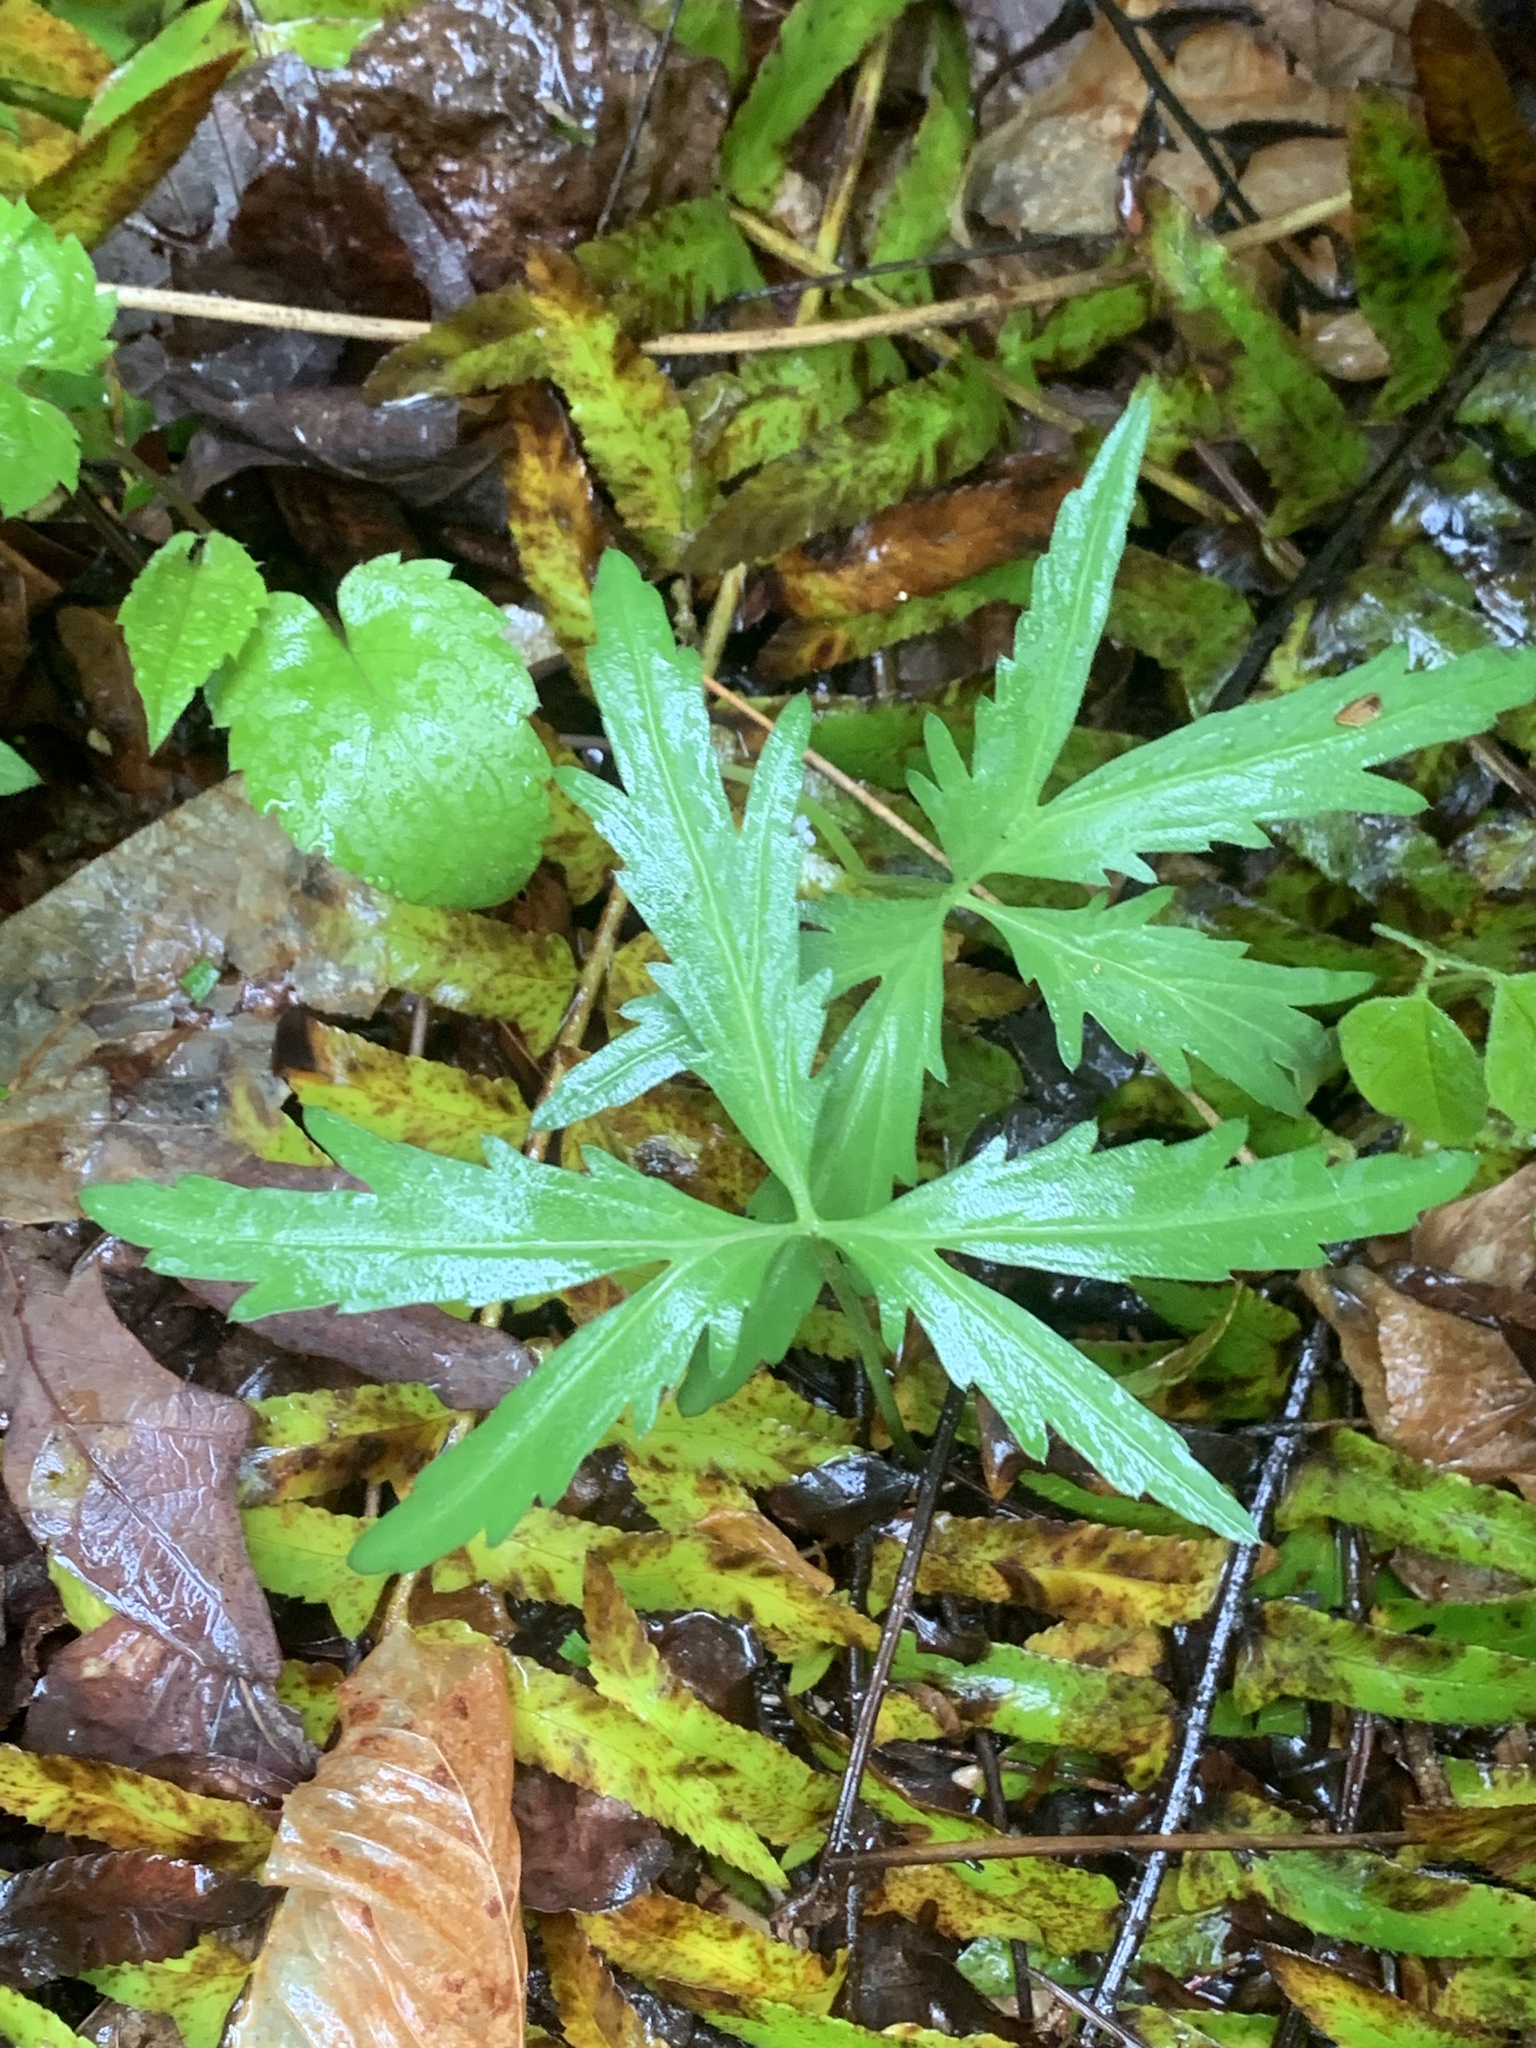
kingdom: Plantae
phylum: Tracheophyta
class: Magnoliopsida
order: Brassicales
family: Brassicaceae
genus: Cardamine
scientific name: Cardamine concatenata
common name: Cut-leaf toothcup
